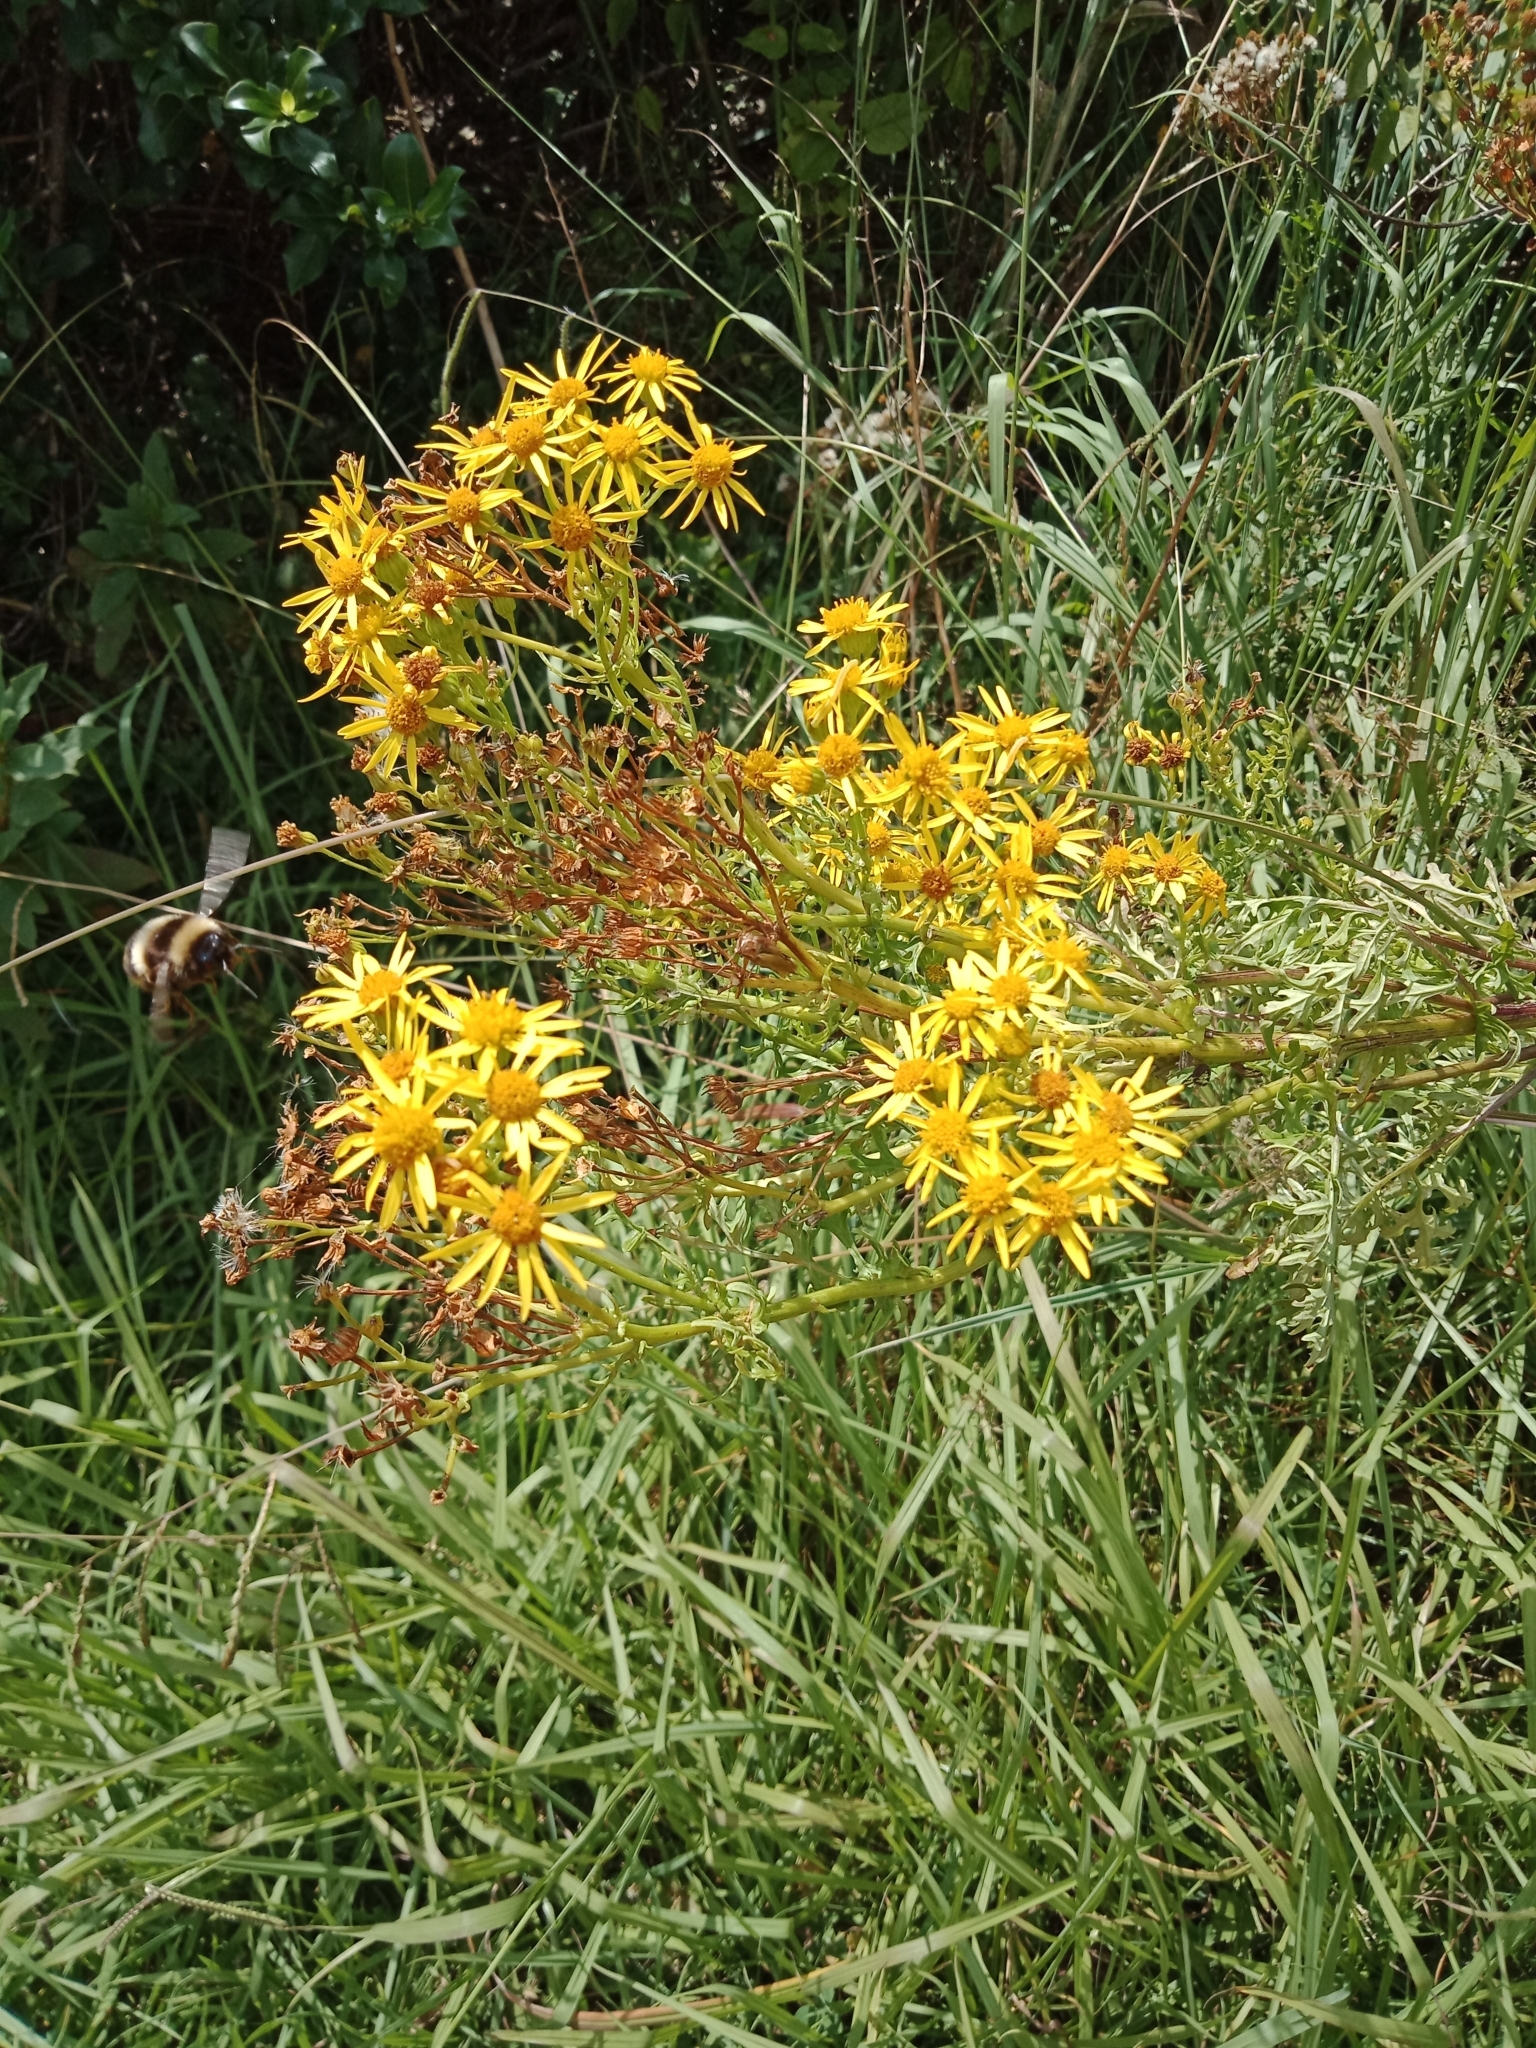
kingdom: Plantae
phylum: Tracheophyta
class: Magnoliopsida
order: Asterales
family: Asteraceae
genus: Jacobaea
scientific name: Jacobaea vulgaris
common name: Stinking willie
